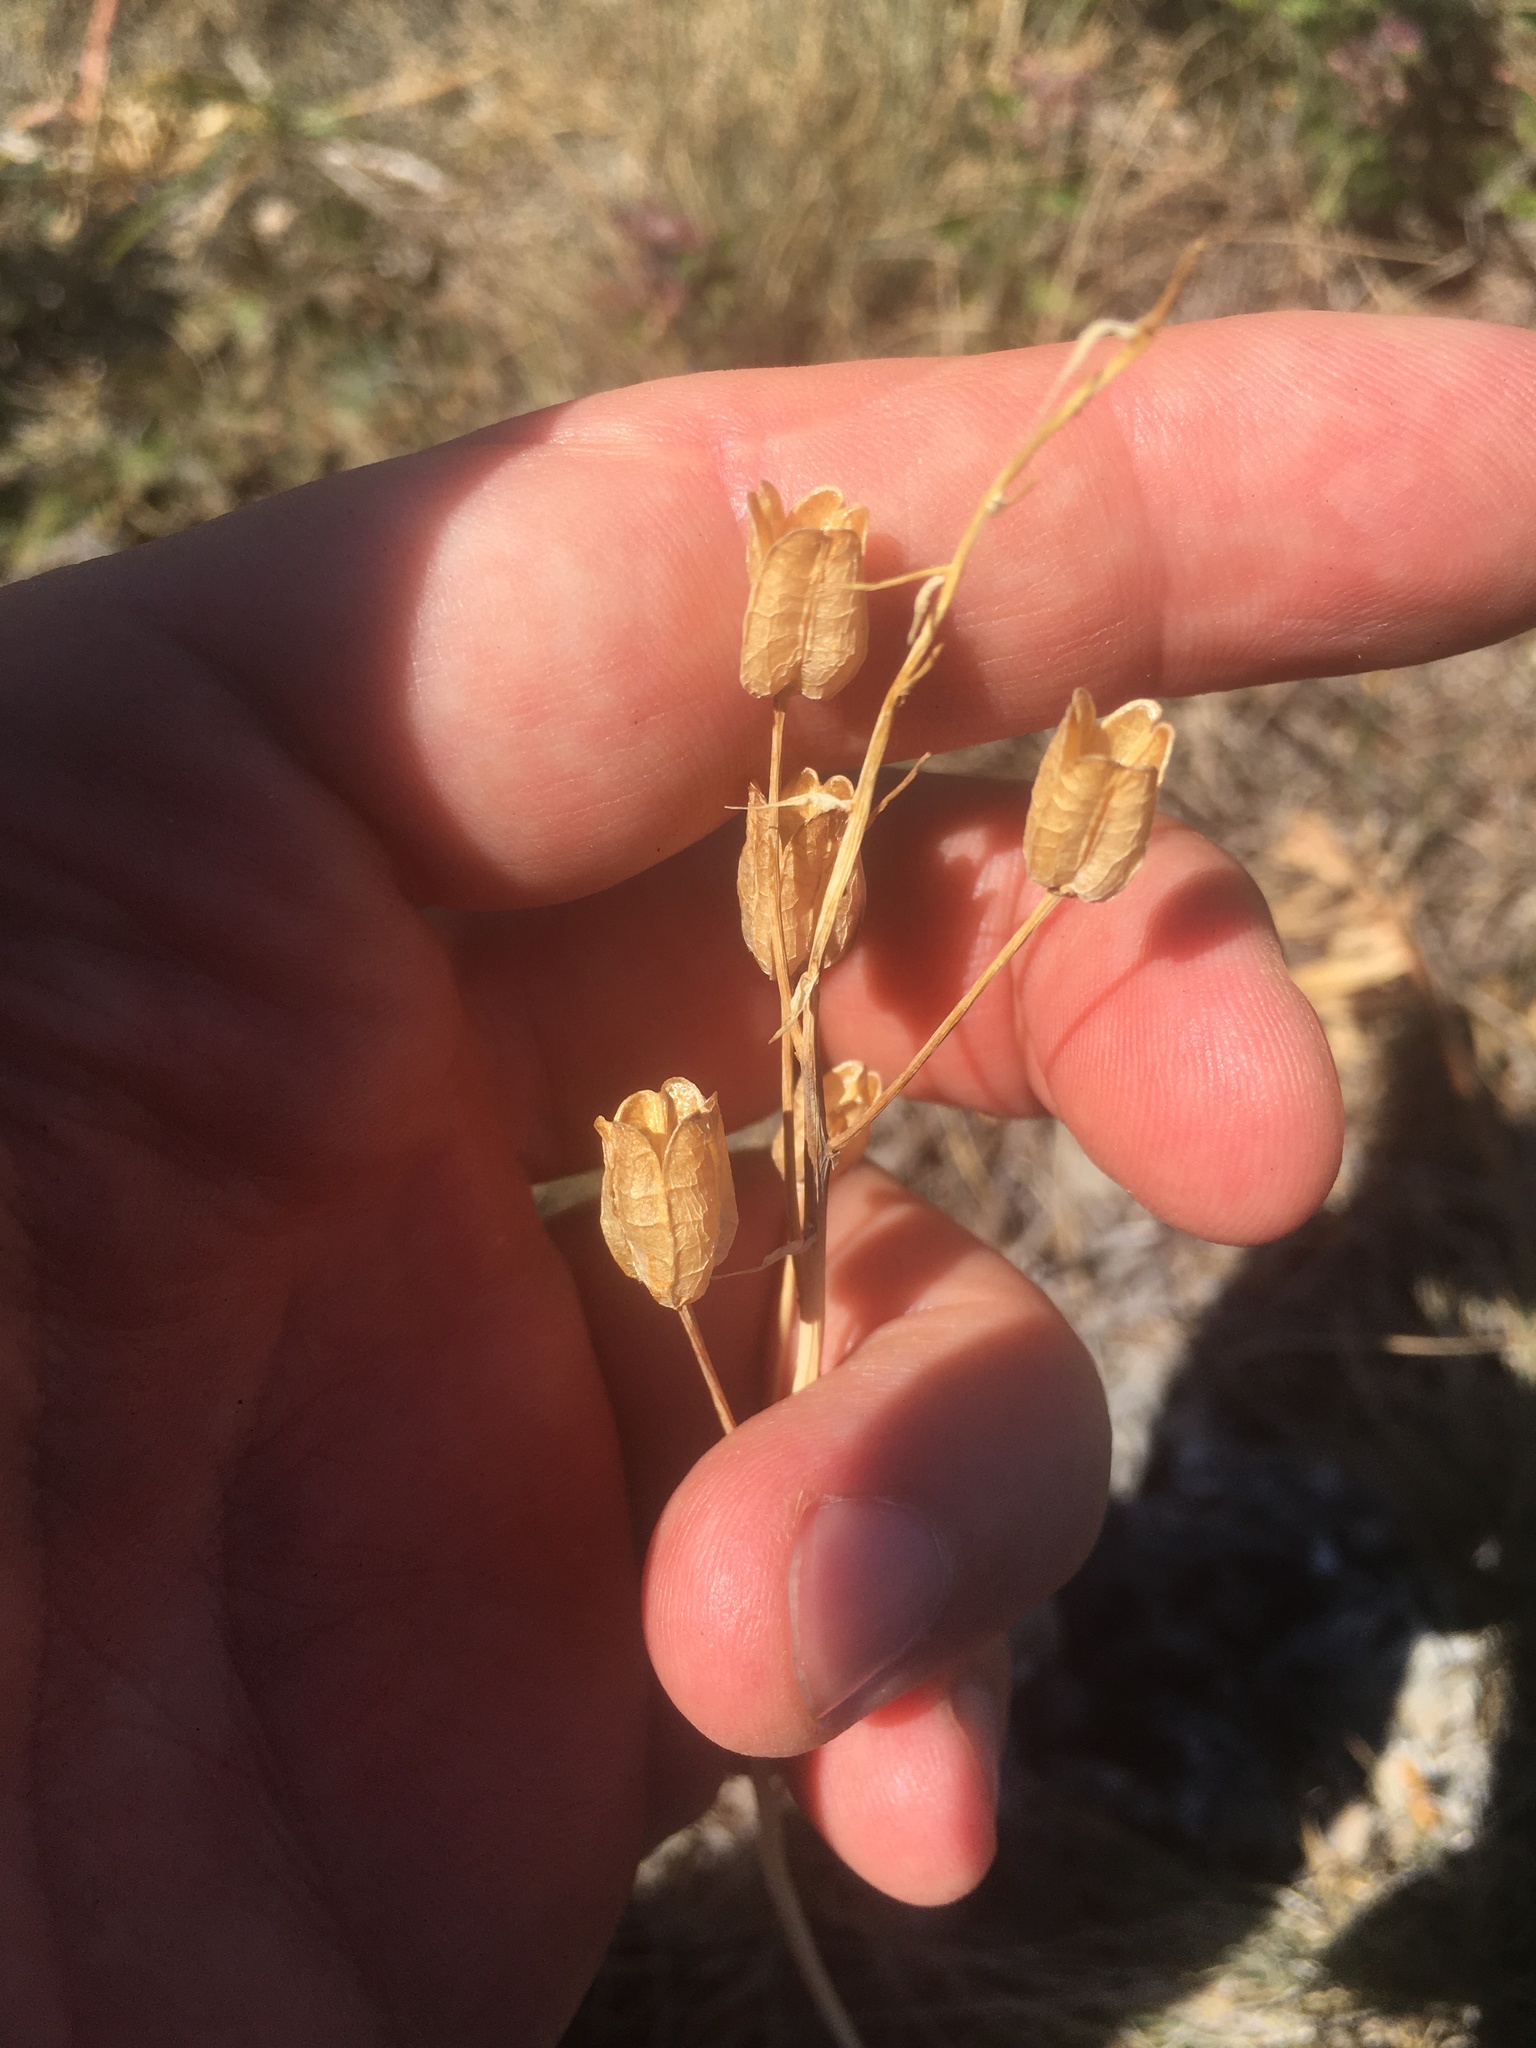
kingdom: Plantae
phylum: Tracheophyta
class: Liliopsida
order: Asparagales
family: Iridaceae
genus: Gladiolus
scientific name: Gladiolus imbricatus
